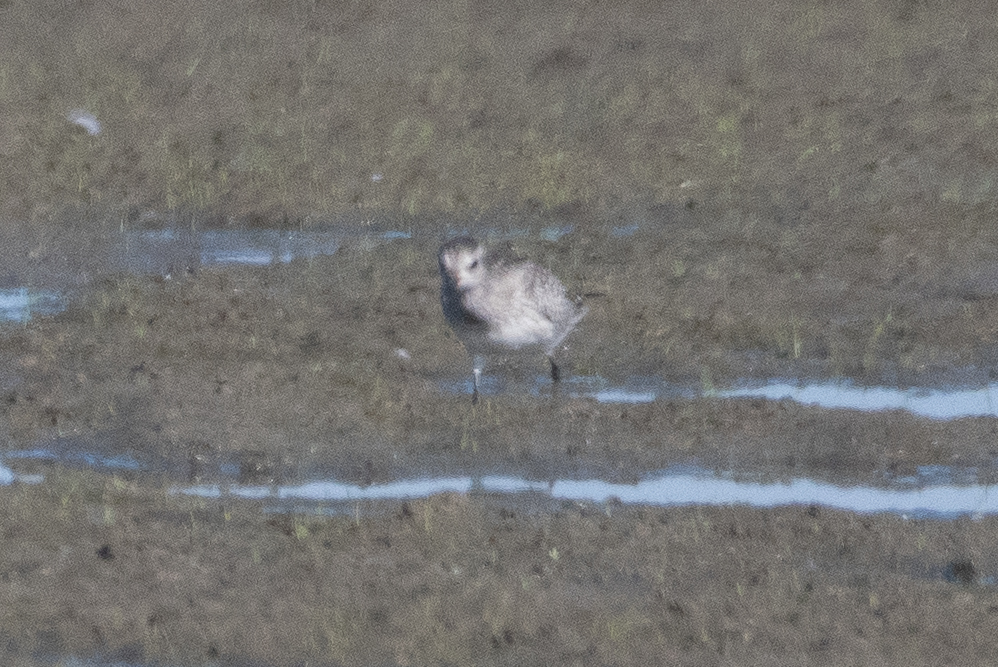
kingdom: Animalia
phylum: Chordata
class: Aves
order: Charadriiformes
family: Charadriidae
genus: Pluvialis
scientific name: Pluvialis squatarola
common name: Grey plover
